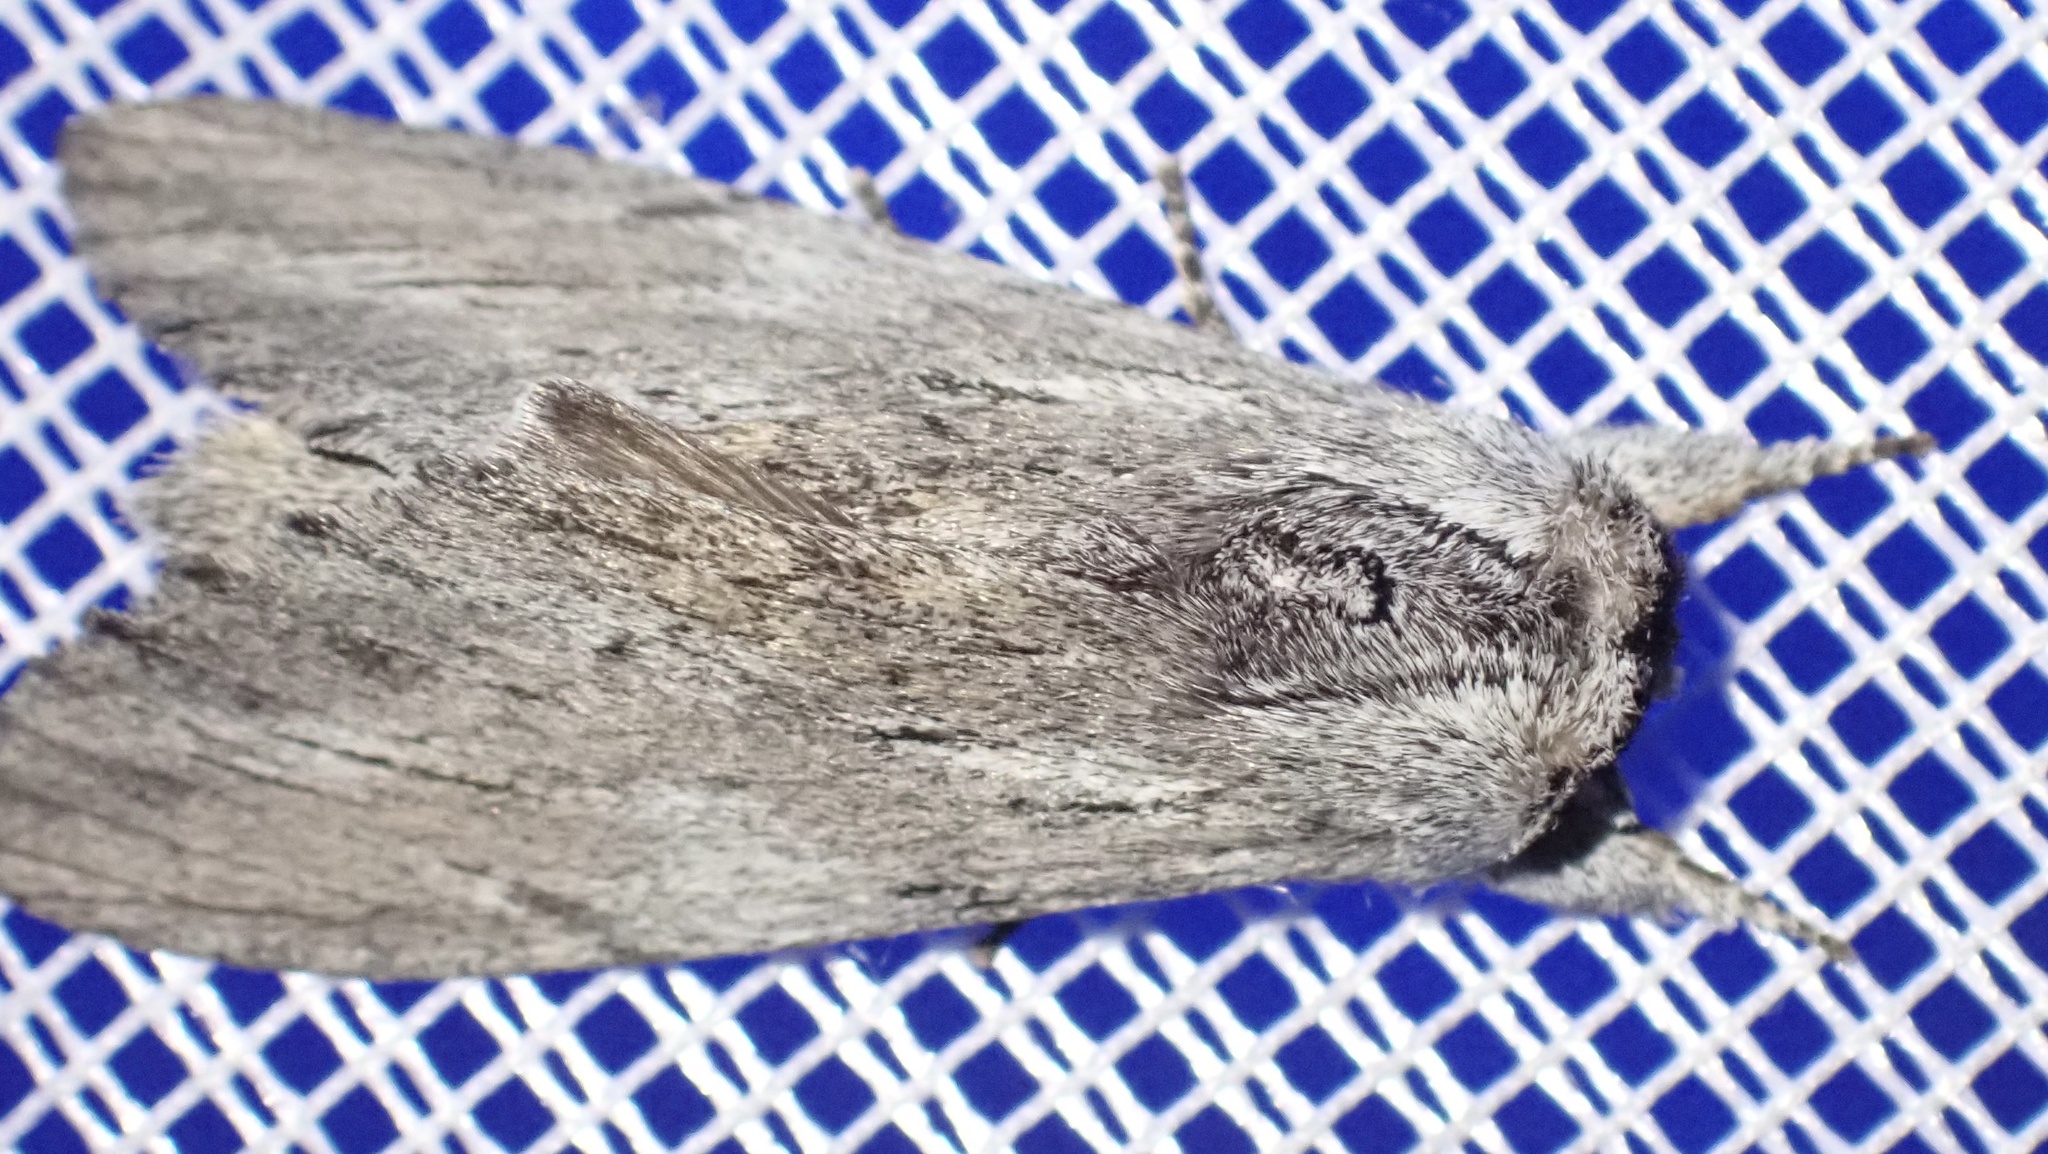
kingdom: Animalia
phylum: Arthropoda
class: Insecta
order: Lepidoptera
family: Notodontidae
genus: Destolmia
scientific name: Destolmia lineata
